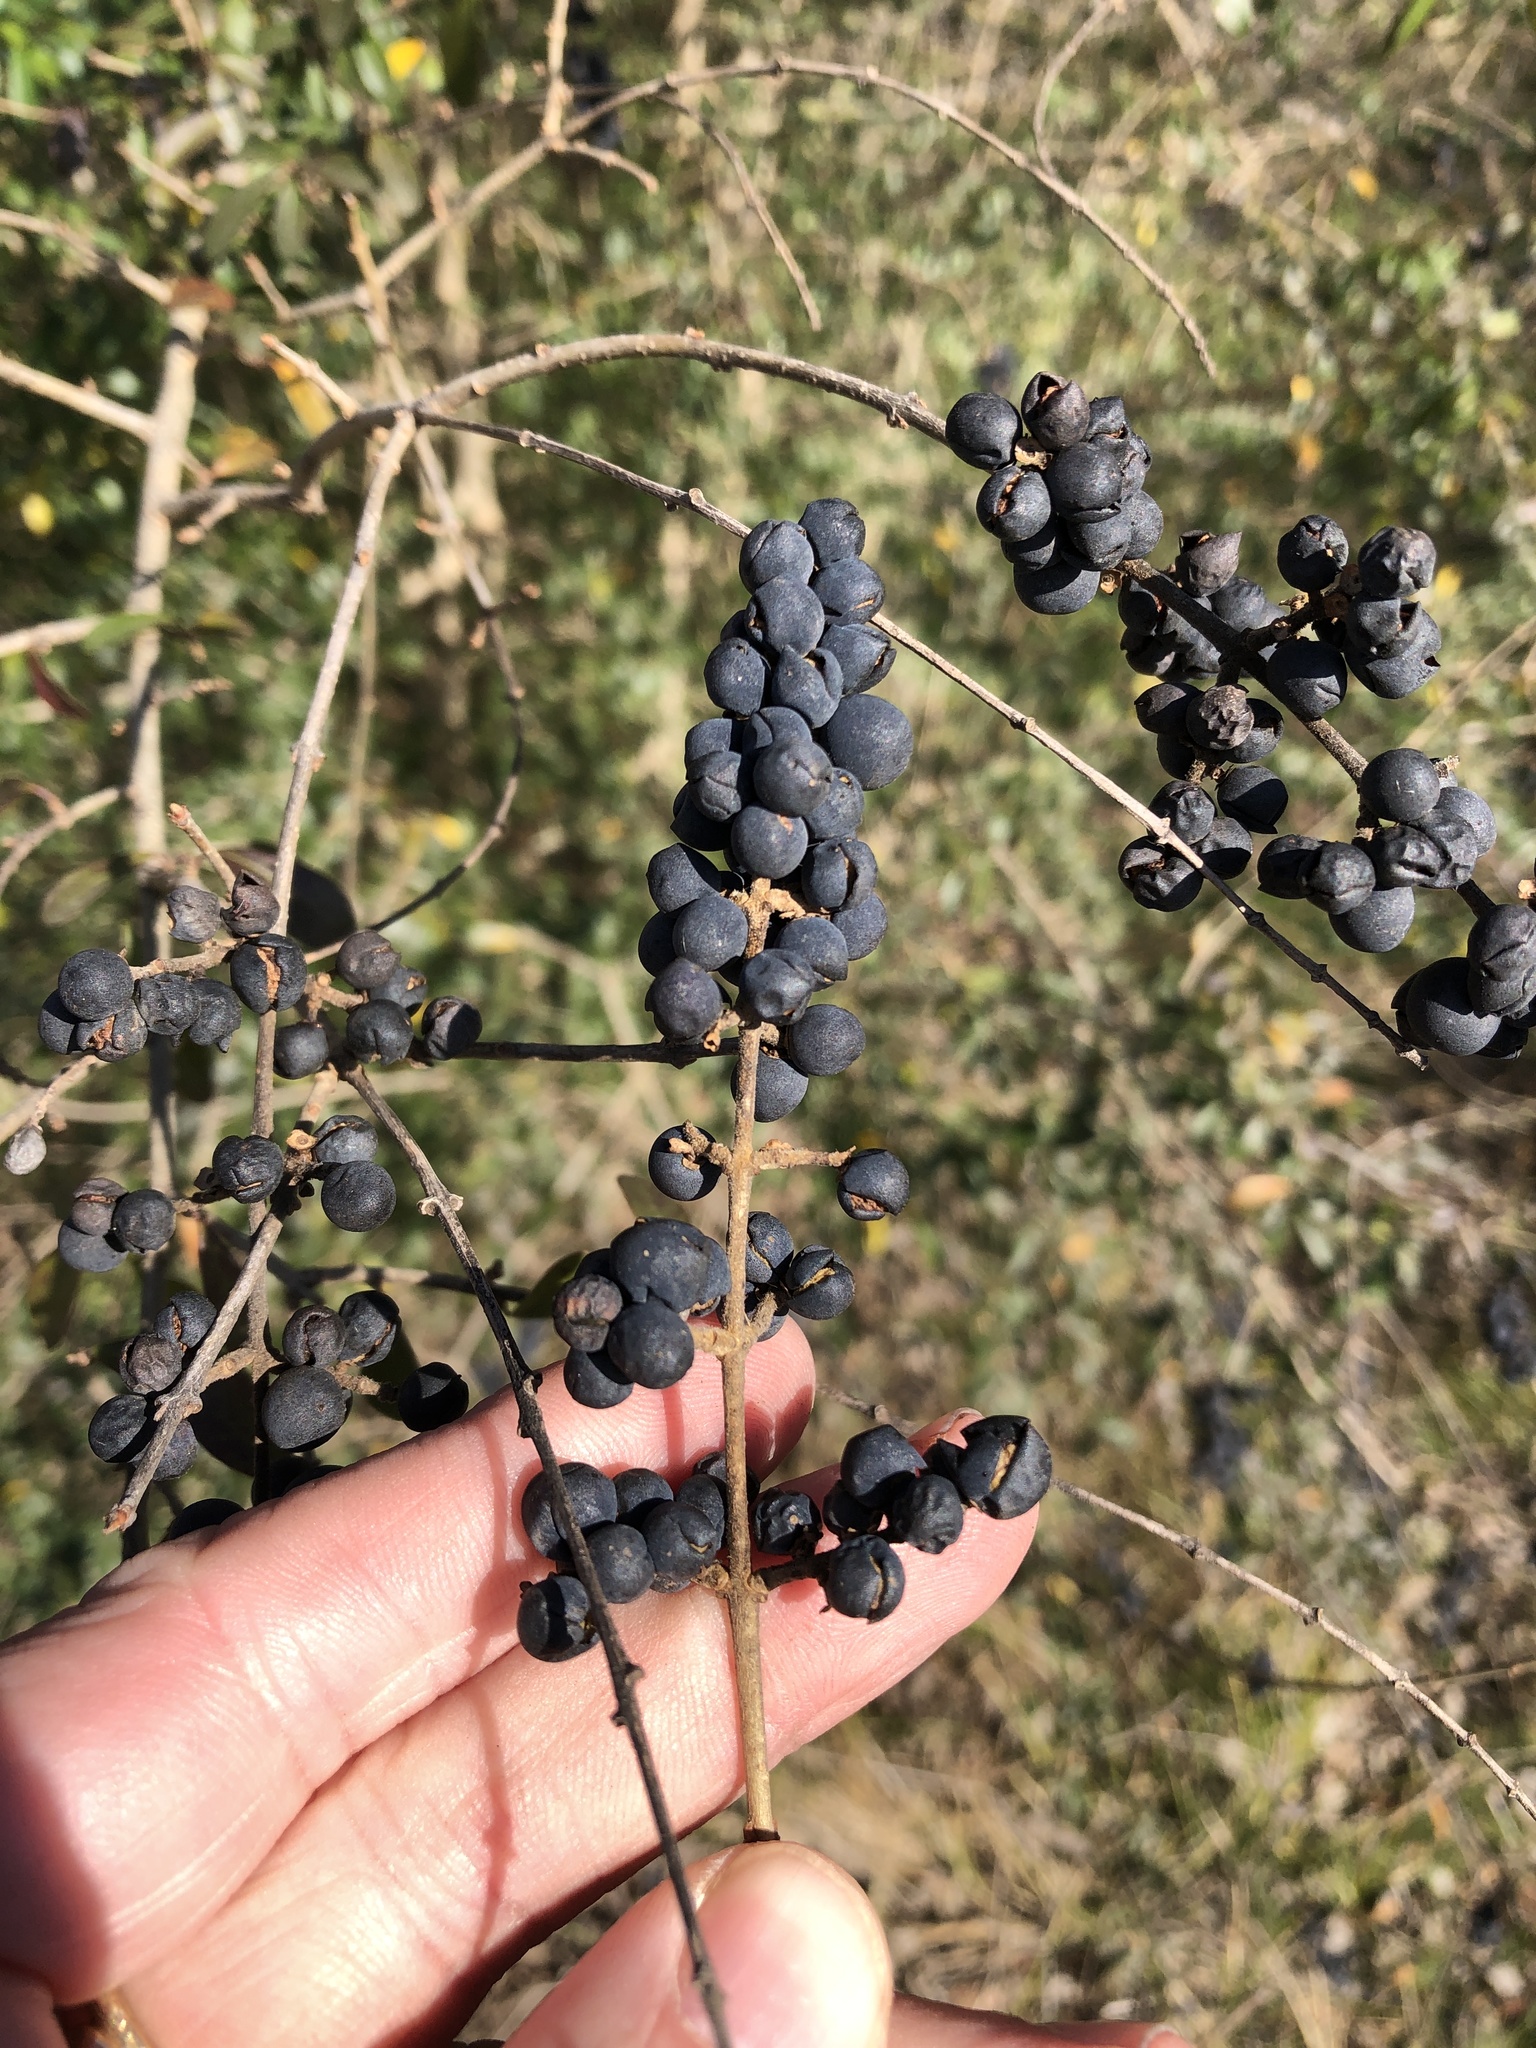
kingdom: Plantae
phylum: Tracheophyta
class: Magnoliopsida
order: Lamiales
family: Oleaceae
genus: Ligustrum
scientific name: Ligustrum quihoui
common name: Waxyleaf privet
